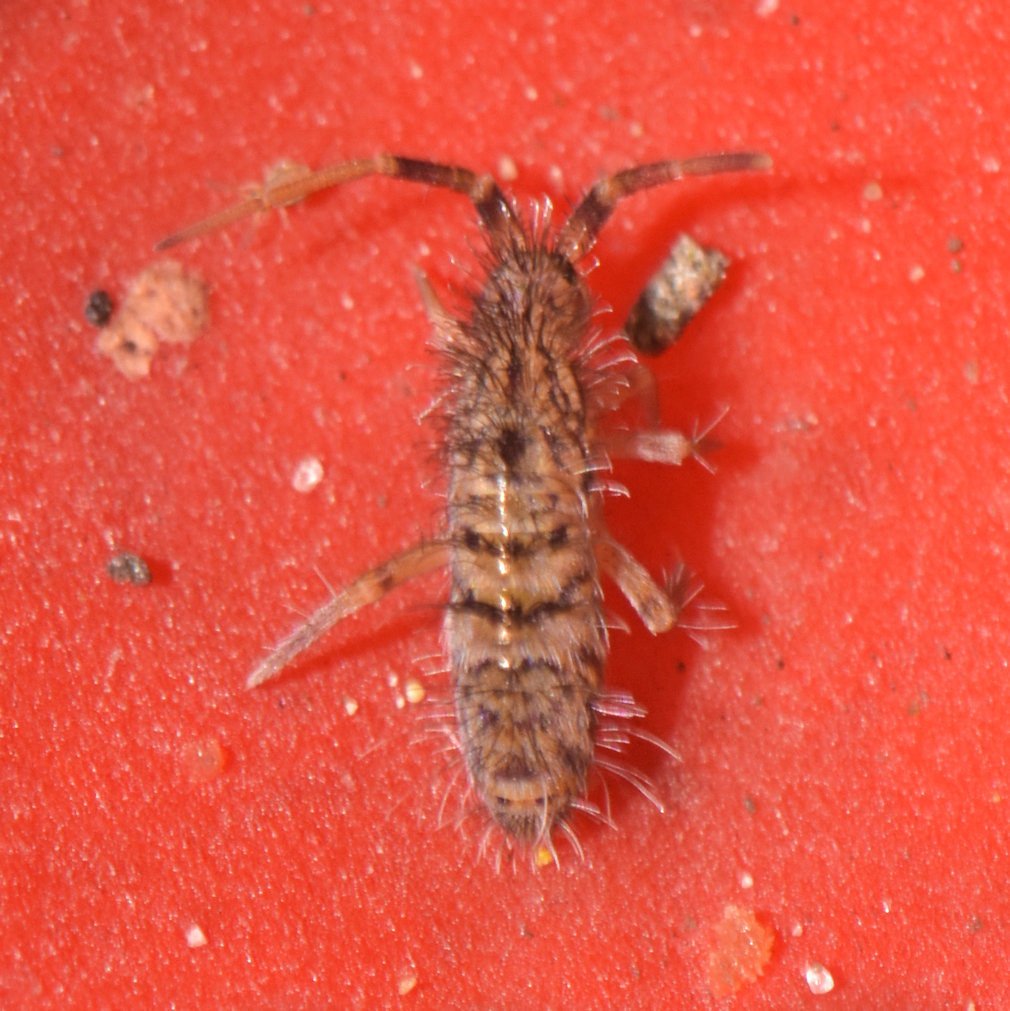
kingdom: Animalia
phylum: Arthropoda
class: Collembola
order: Entomobryomorpha
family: Orchesellidae
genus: Orchesella
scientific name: Orchesella villosa
